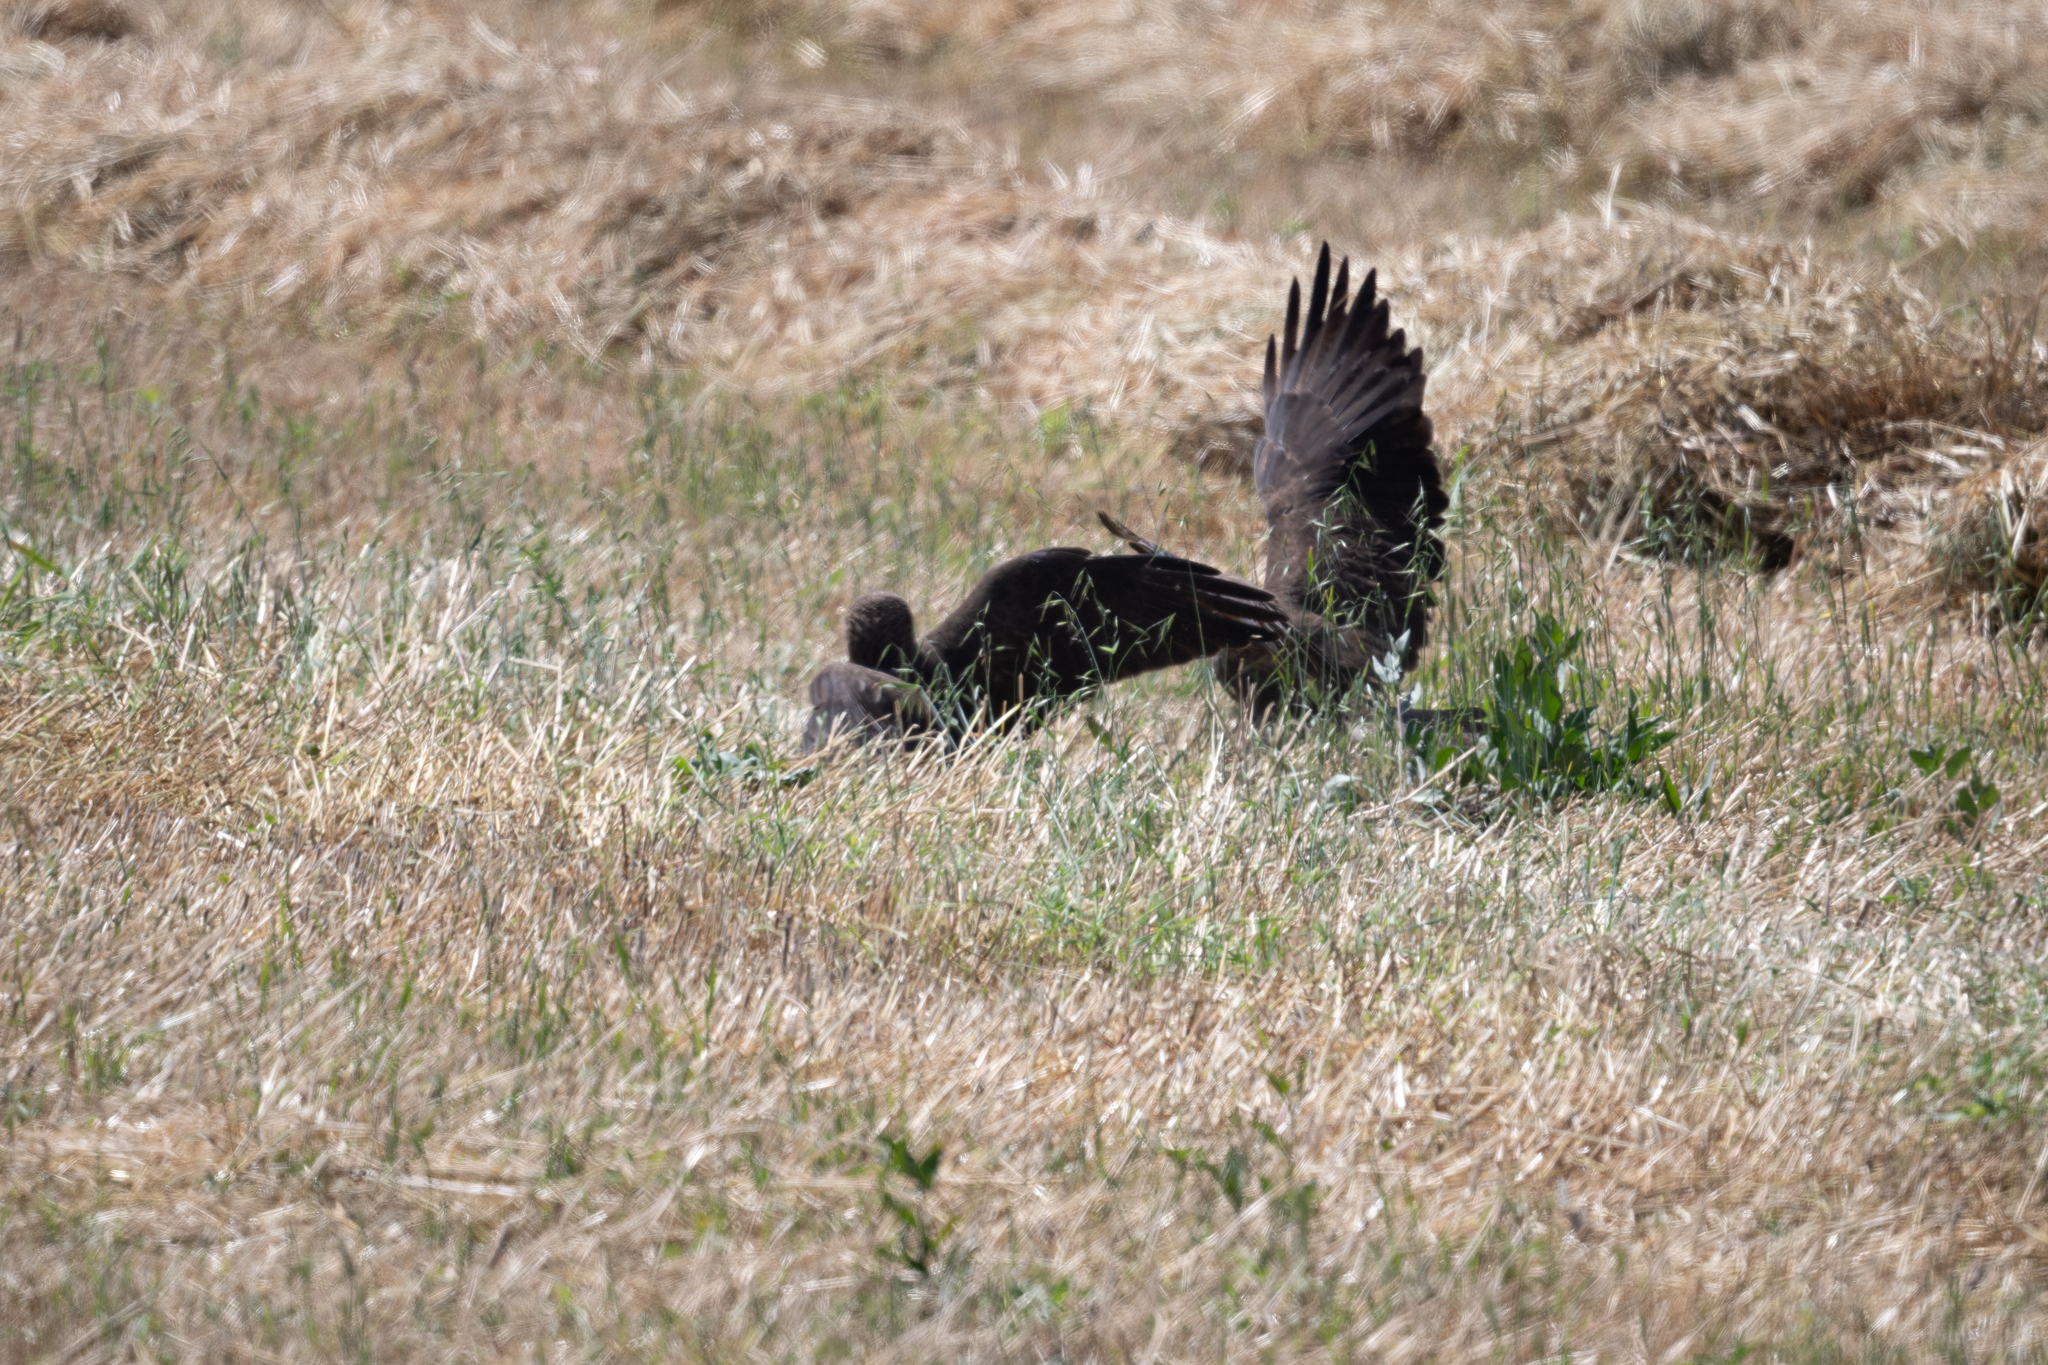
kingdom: Animalia
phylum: Chordata
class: Aves
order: Accipitriformes
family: Accipitridae
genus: Buteo
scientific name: Buteo swainsoni
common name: Swainson's hawk
